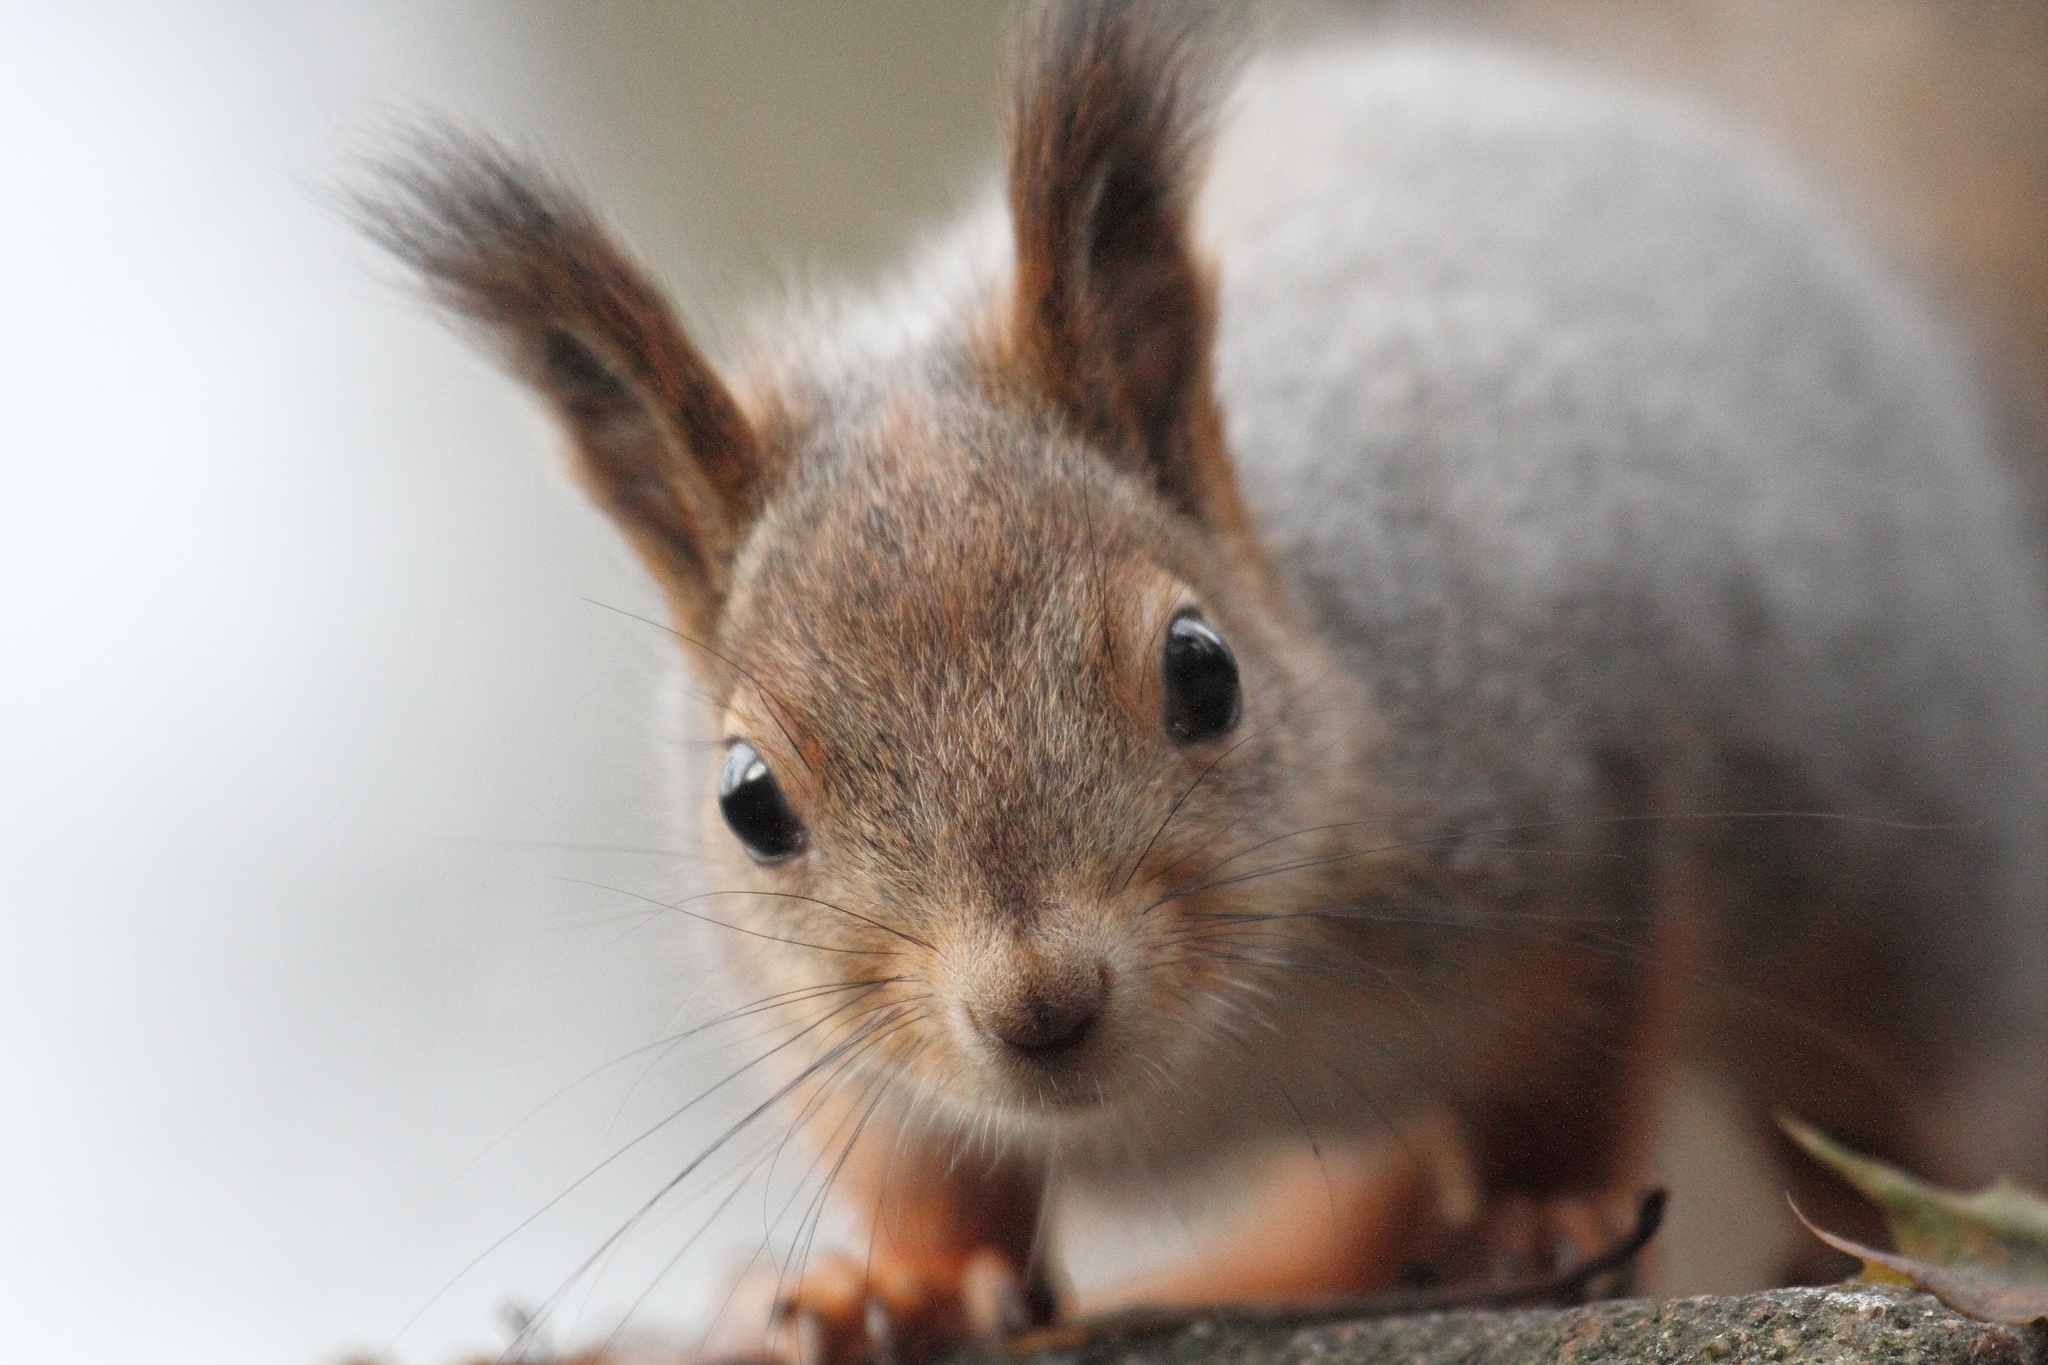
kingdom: Animalia
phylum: Chordata
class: Mammalia
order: Rodentia
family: Sciuridae
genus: Sciurus
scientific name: Sciurus vulgaris
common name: Eurasian red squirrel
